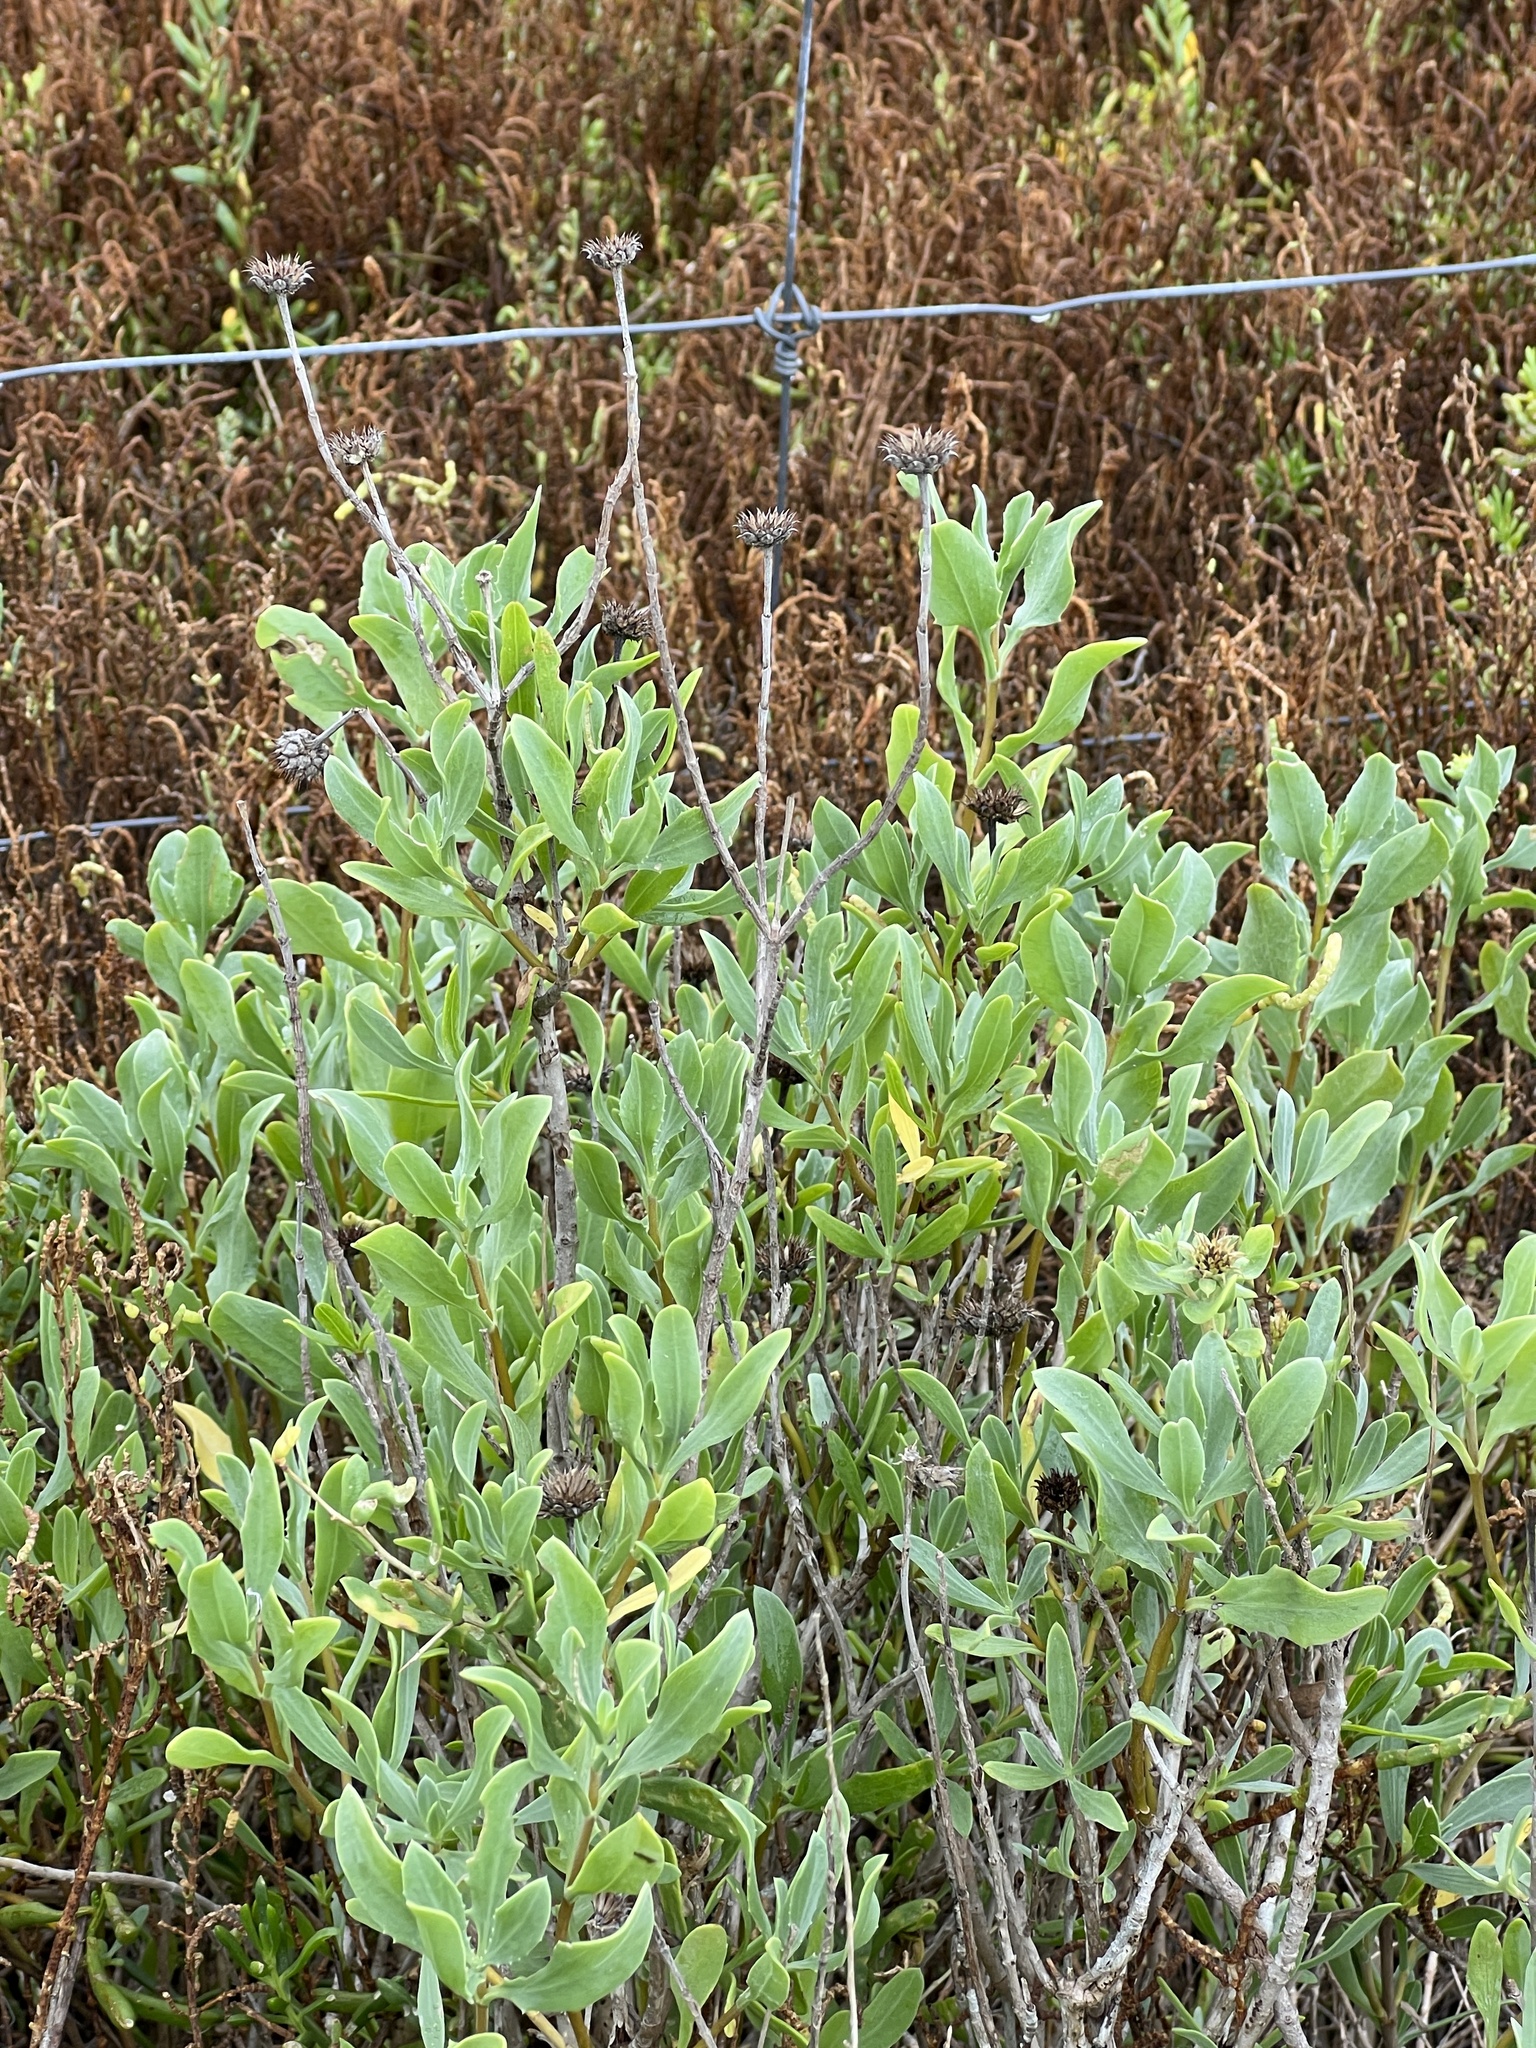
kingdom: Plantae
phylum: Tracheophyta
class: Magnoliopsida
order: Asterales
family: Asteraceae
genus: Borrichia
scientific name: Borrichia frutescens
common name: Sea oxeye
